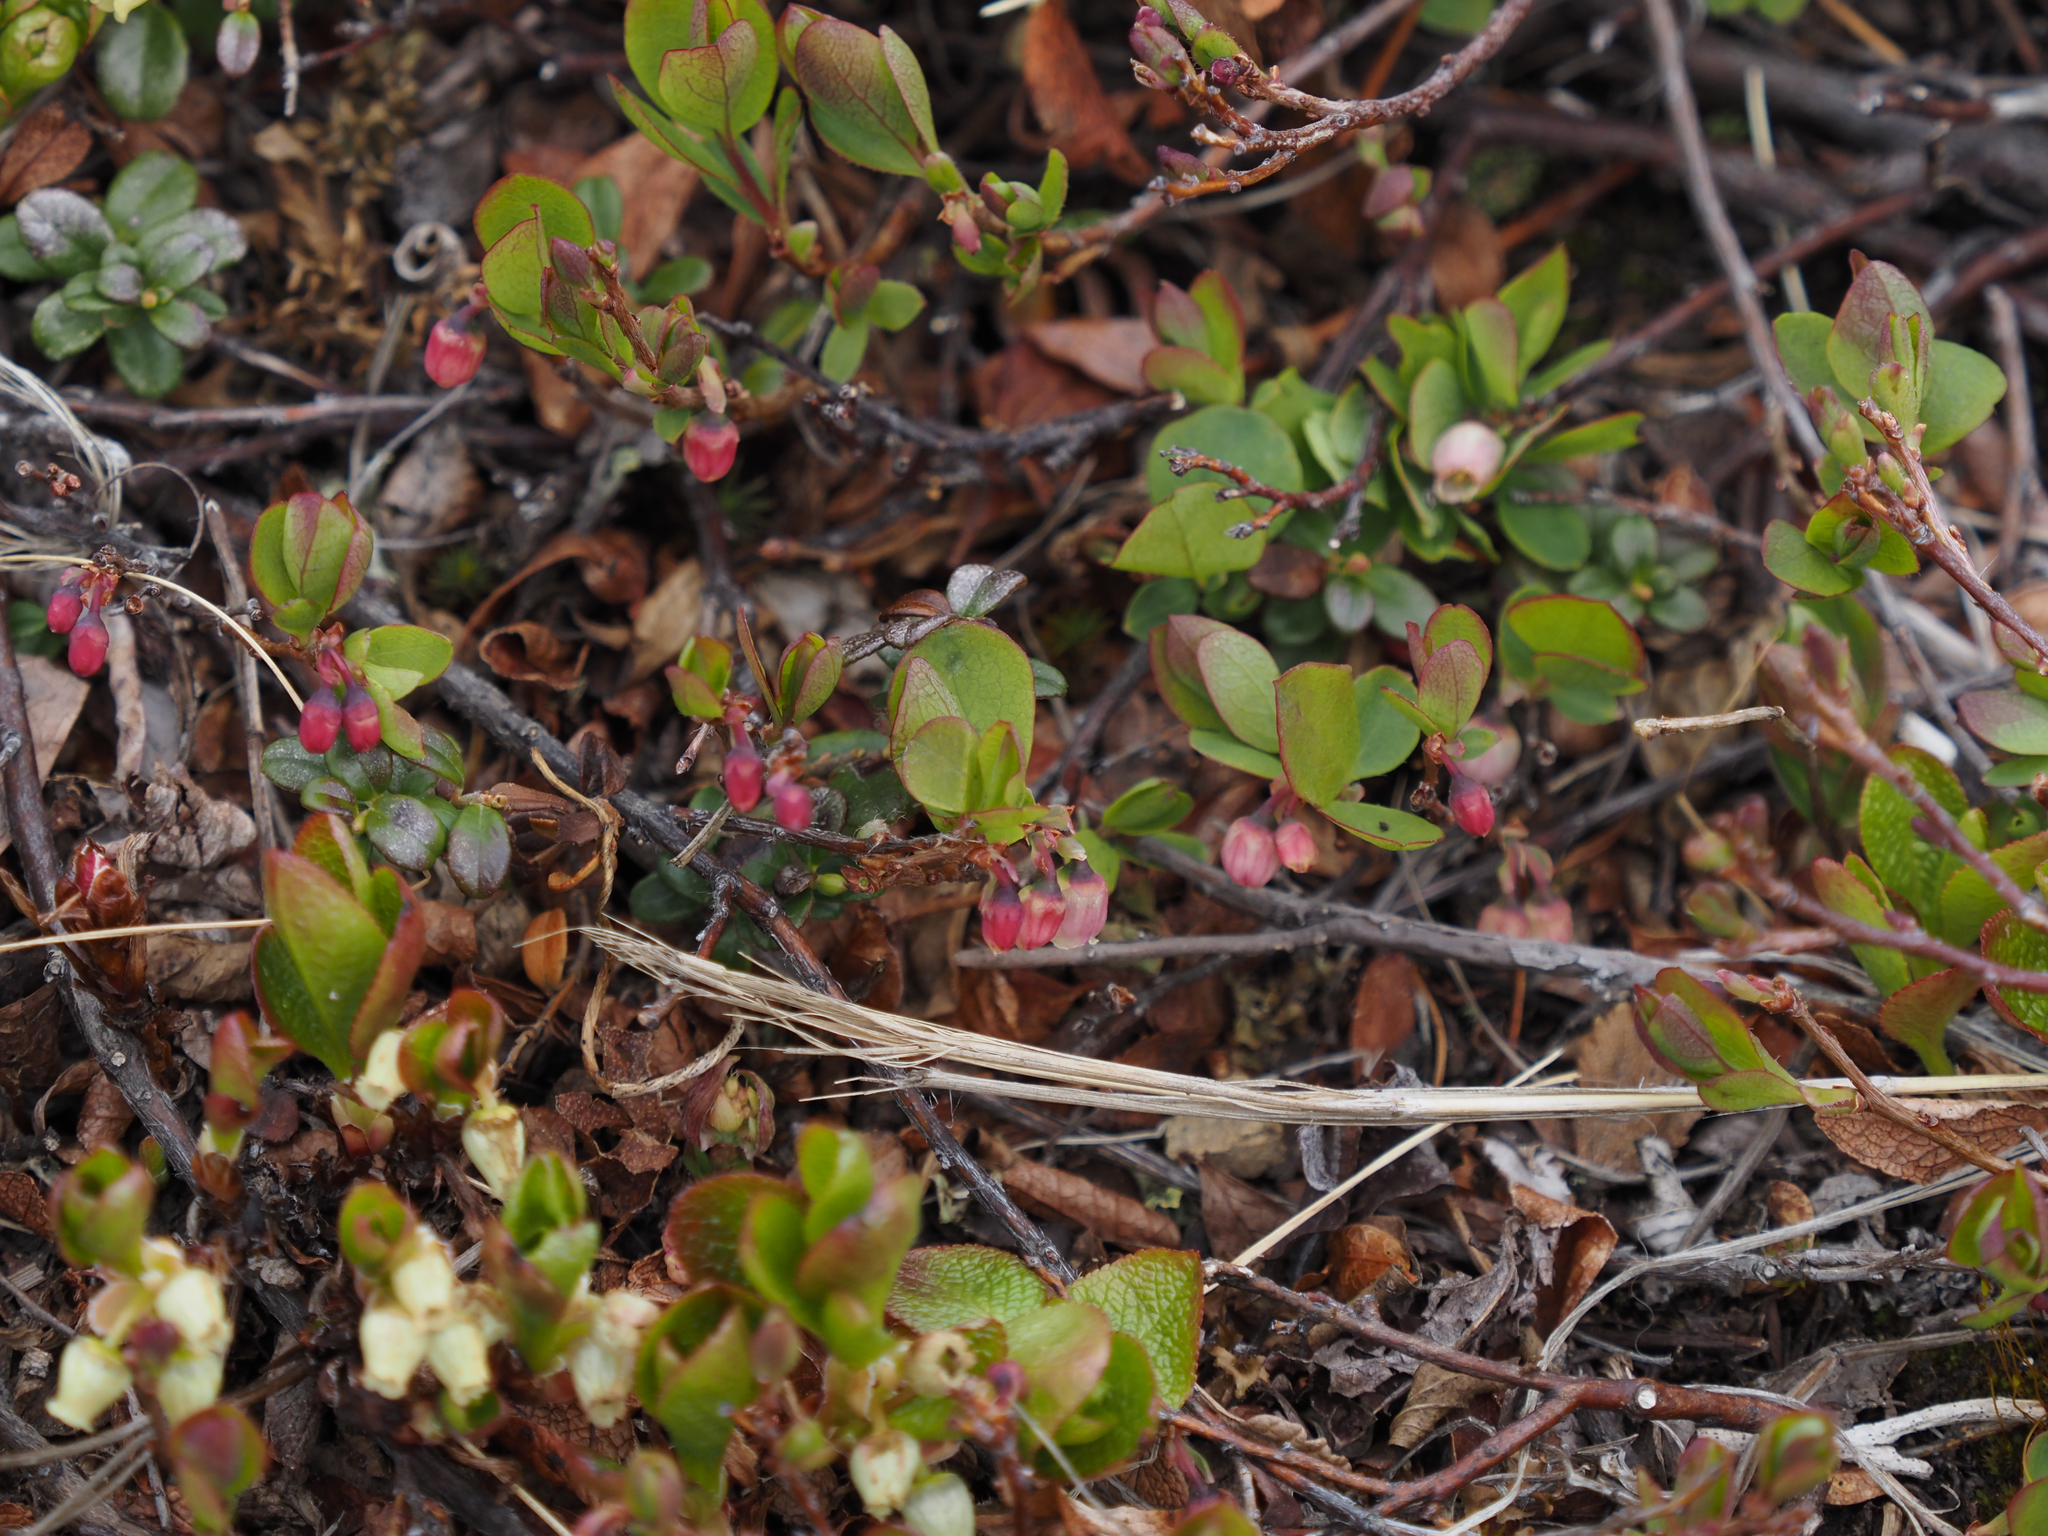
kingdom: Plantae
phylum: Tracheophyta
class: Magnoliopsida
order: Ericales
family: Ericaceae
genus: Vaccinium
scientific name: Vaccinium uliginosum
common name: Bog bilberry
